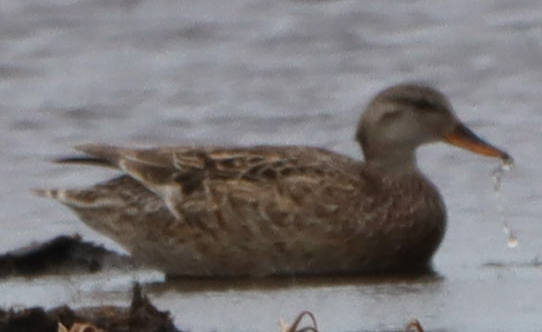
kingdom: Animalia
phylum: Chordata
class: Aves
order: Anseriformes
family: Anatidae
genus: Mareca
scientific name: Mareca strepera
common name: Gadwall
